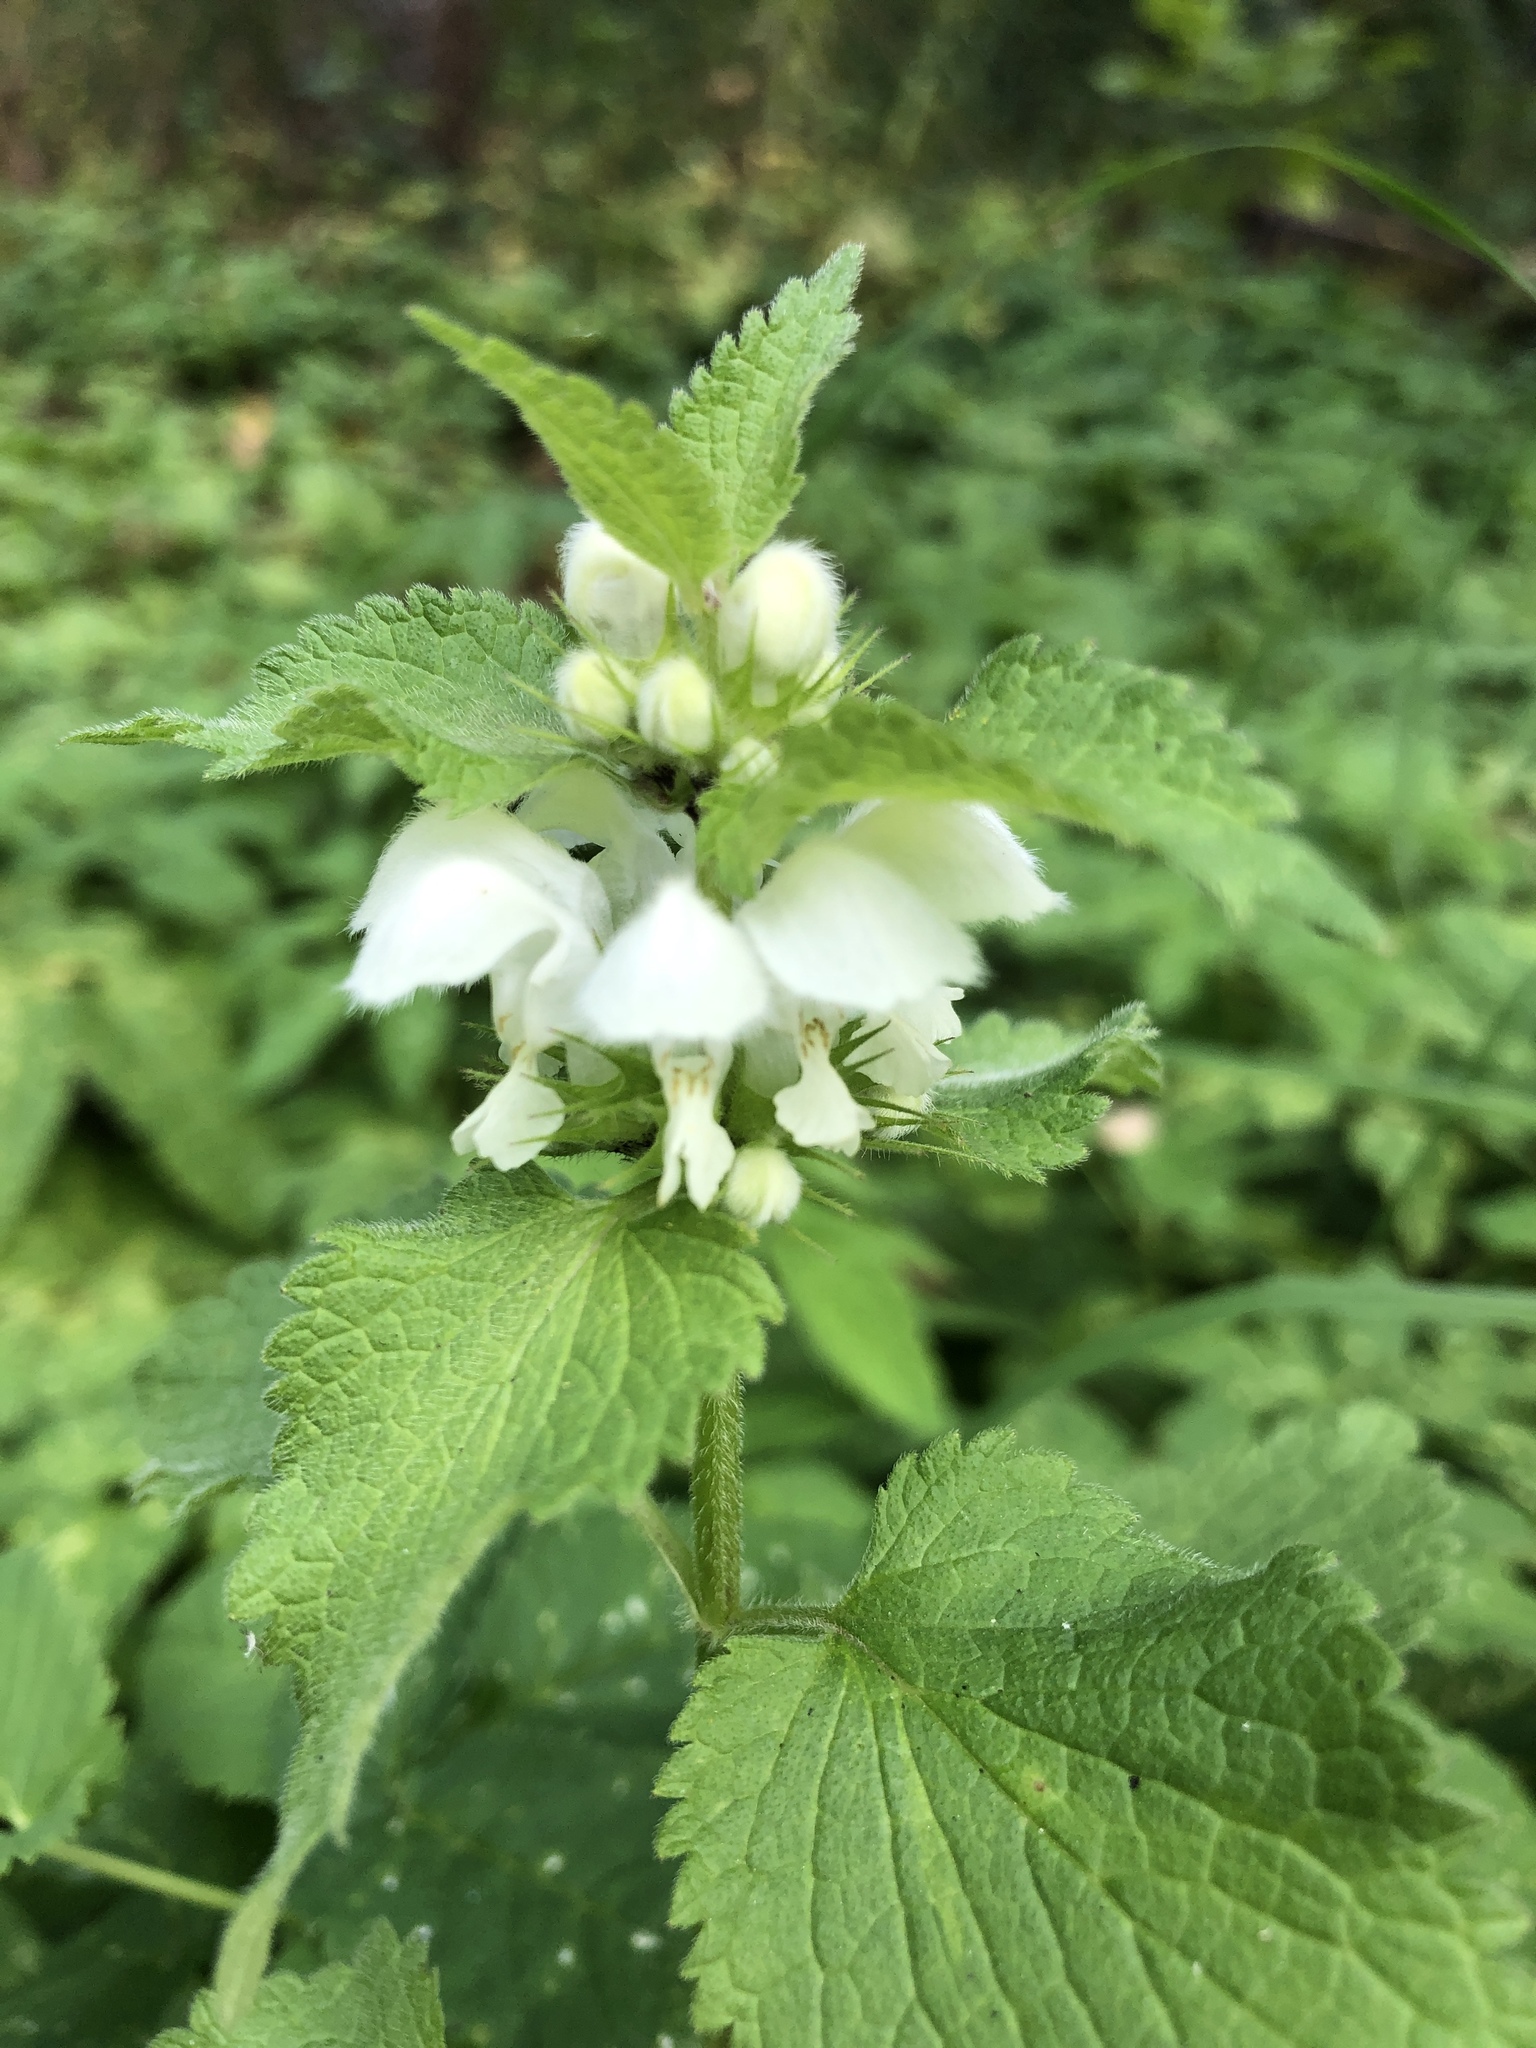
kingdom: Plantae
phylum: Tracheophyta
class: Magnoliopsida
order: Lamiales
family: Lamiaceae
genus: Lamium
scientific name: Lamium album
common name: White dead-nettle
